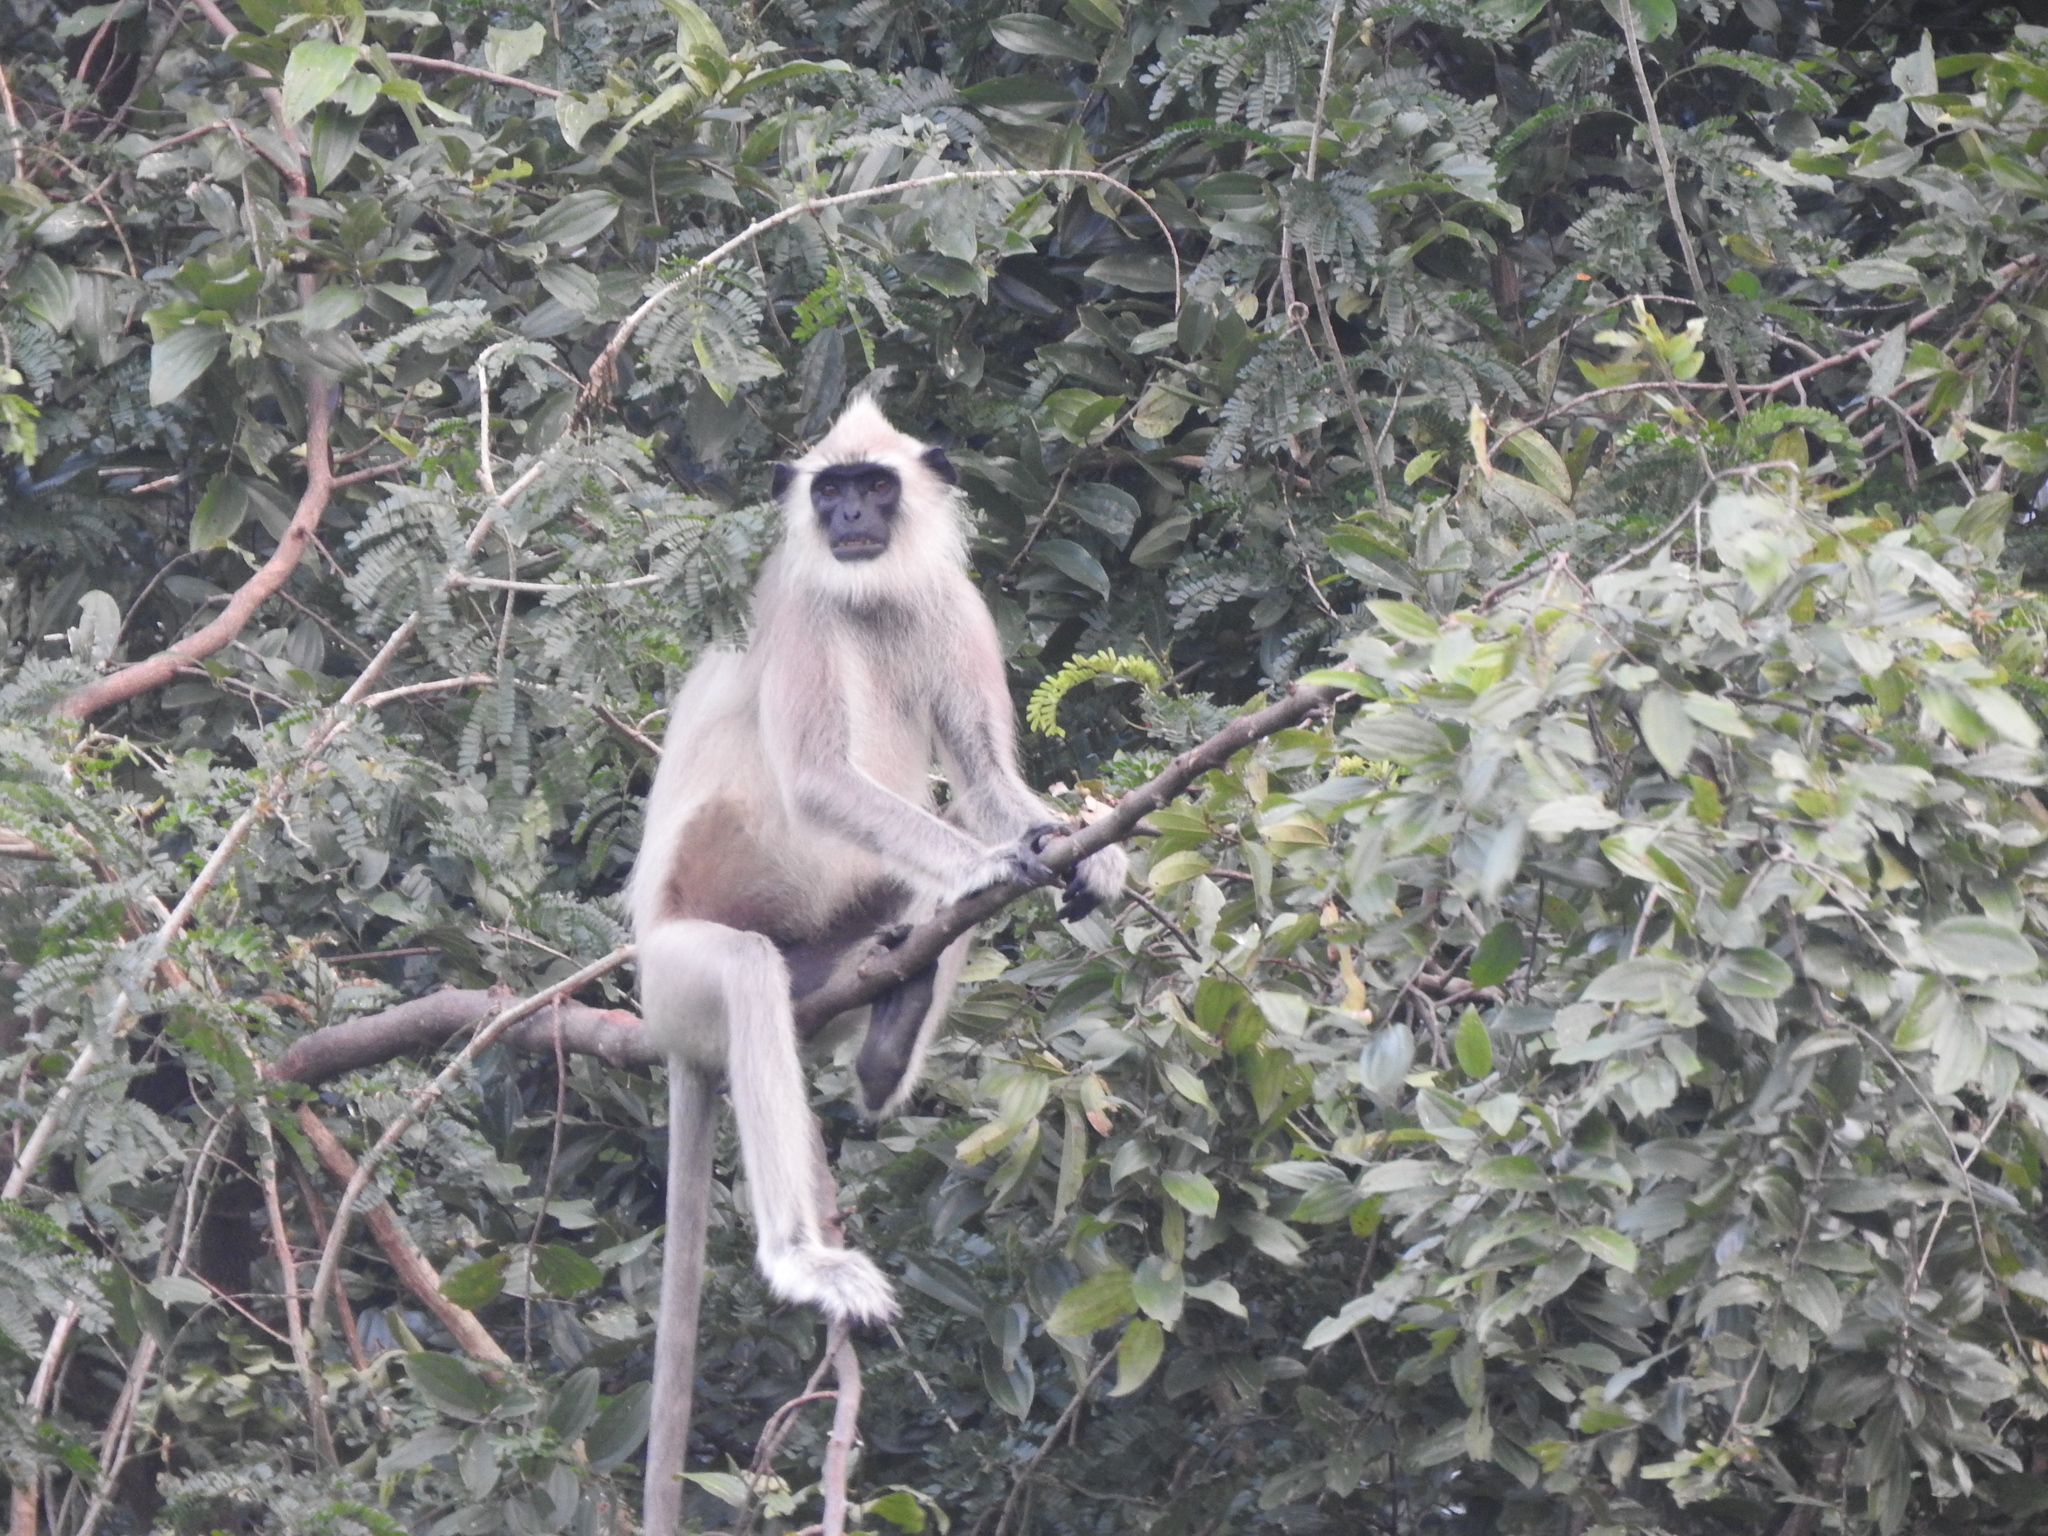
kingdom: Animalia
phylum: Chordata
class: Mammalia
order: Primates
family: Cercopithecidae
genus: Semnopithecus
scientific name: Semnopithecus priam
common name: Tufted gray langur
